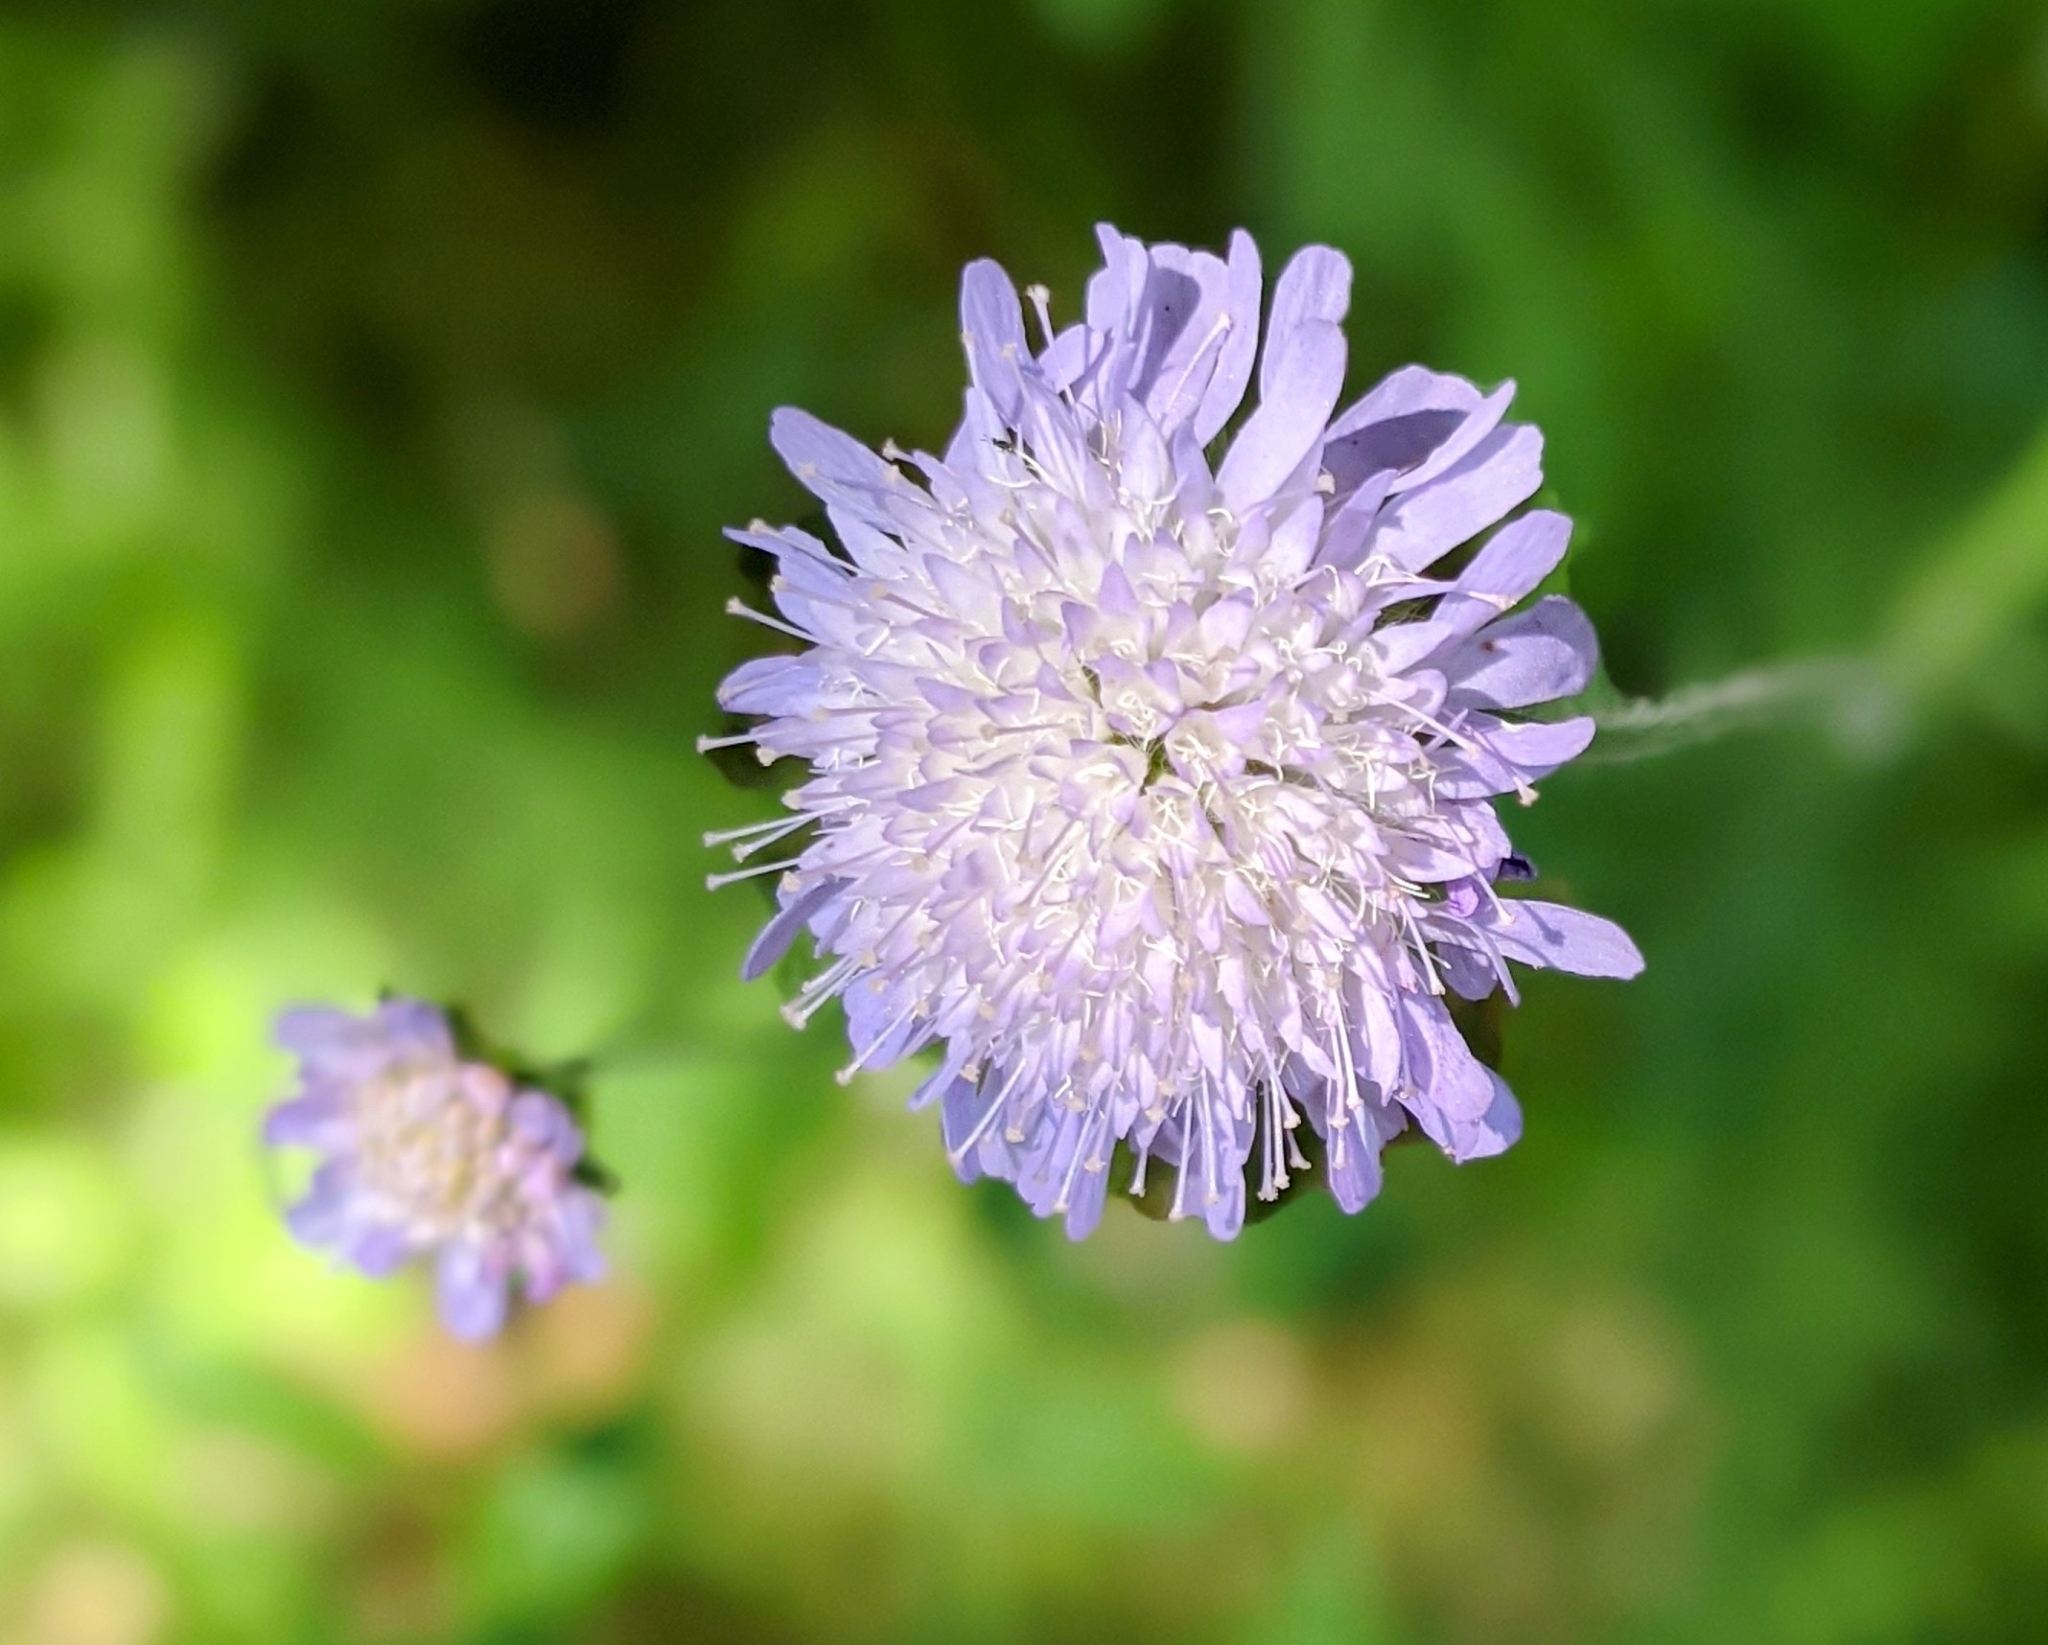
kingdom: Plantae
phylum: Tracheophyta
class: Magnoliopsida
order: Dipsacales
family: Caprifoliaceae
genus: Knautia
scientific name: Knautia arvensis
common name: Field scabiosa
